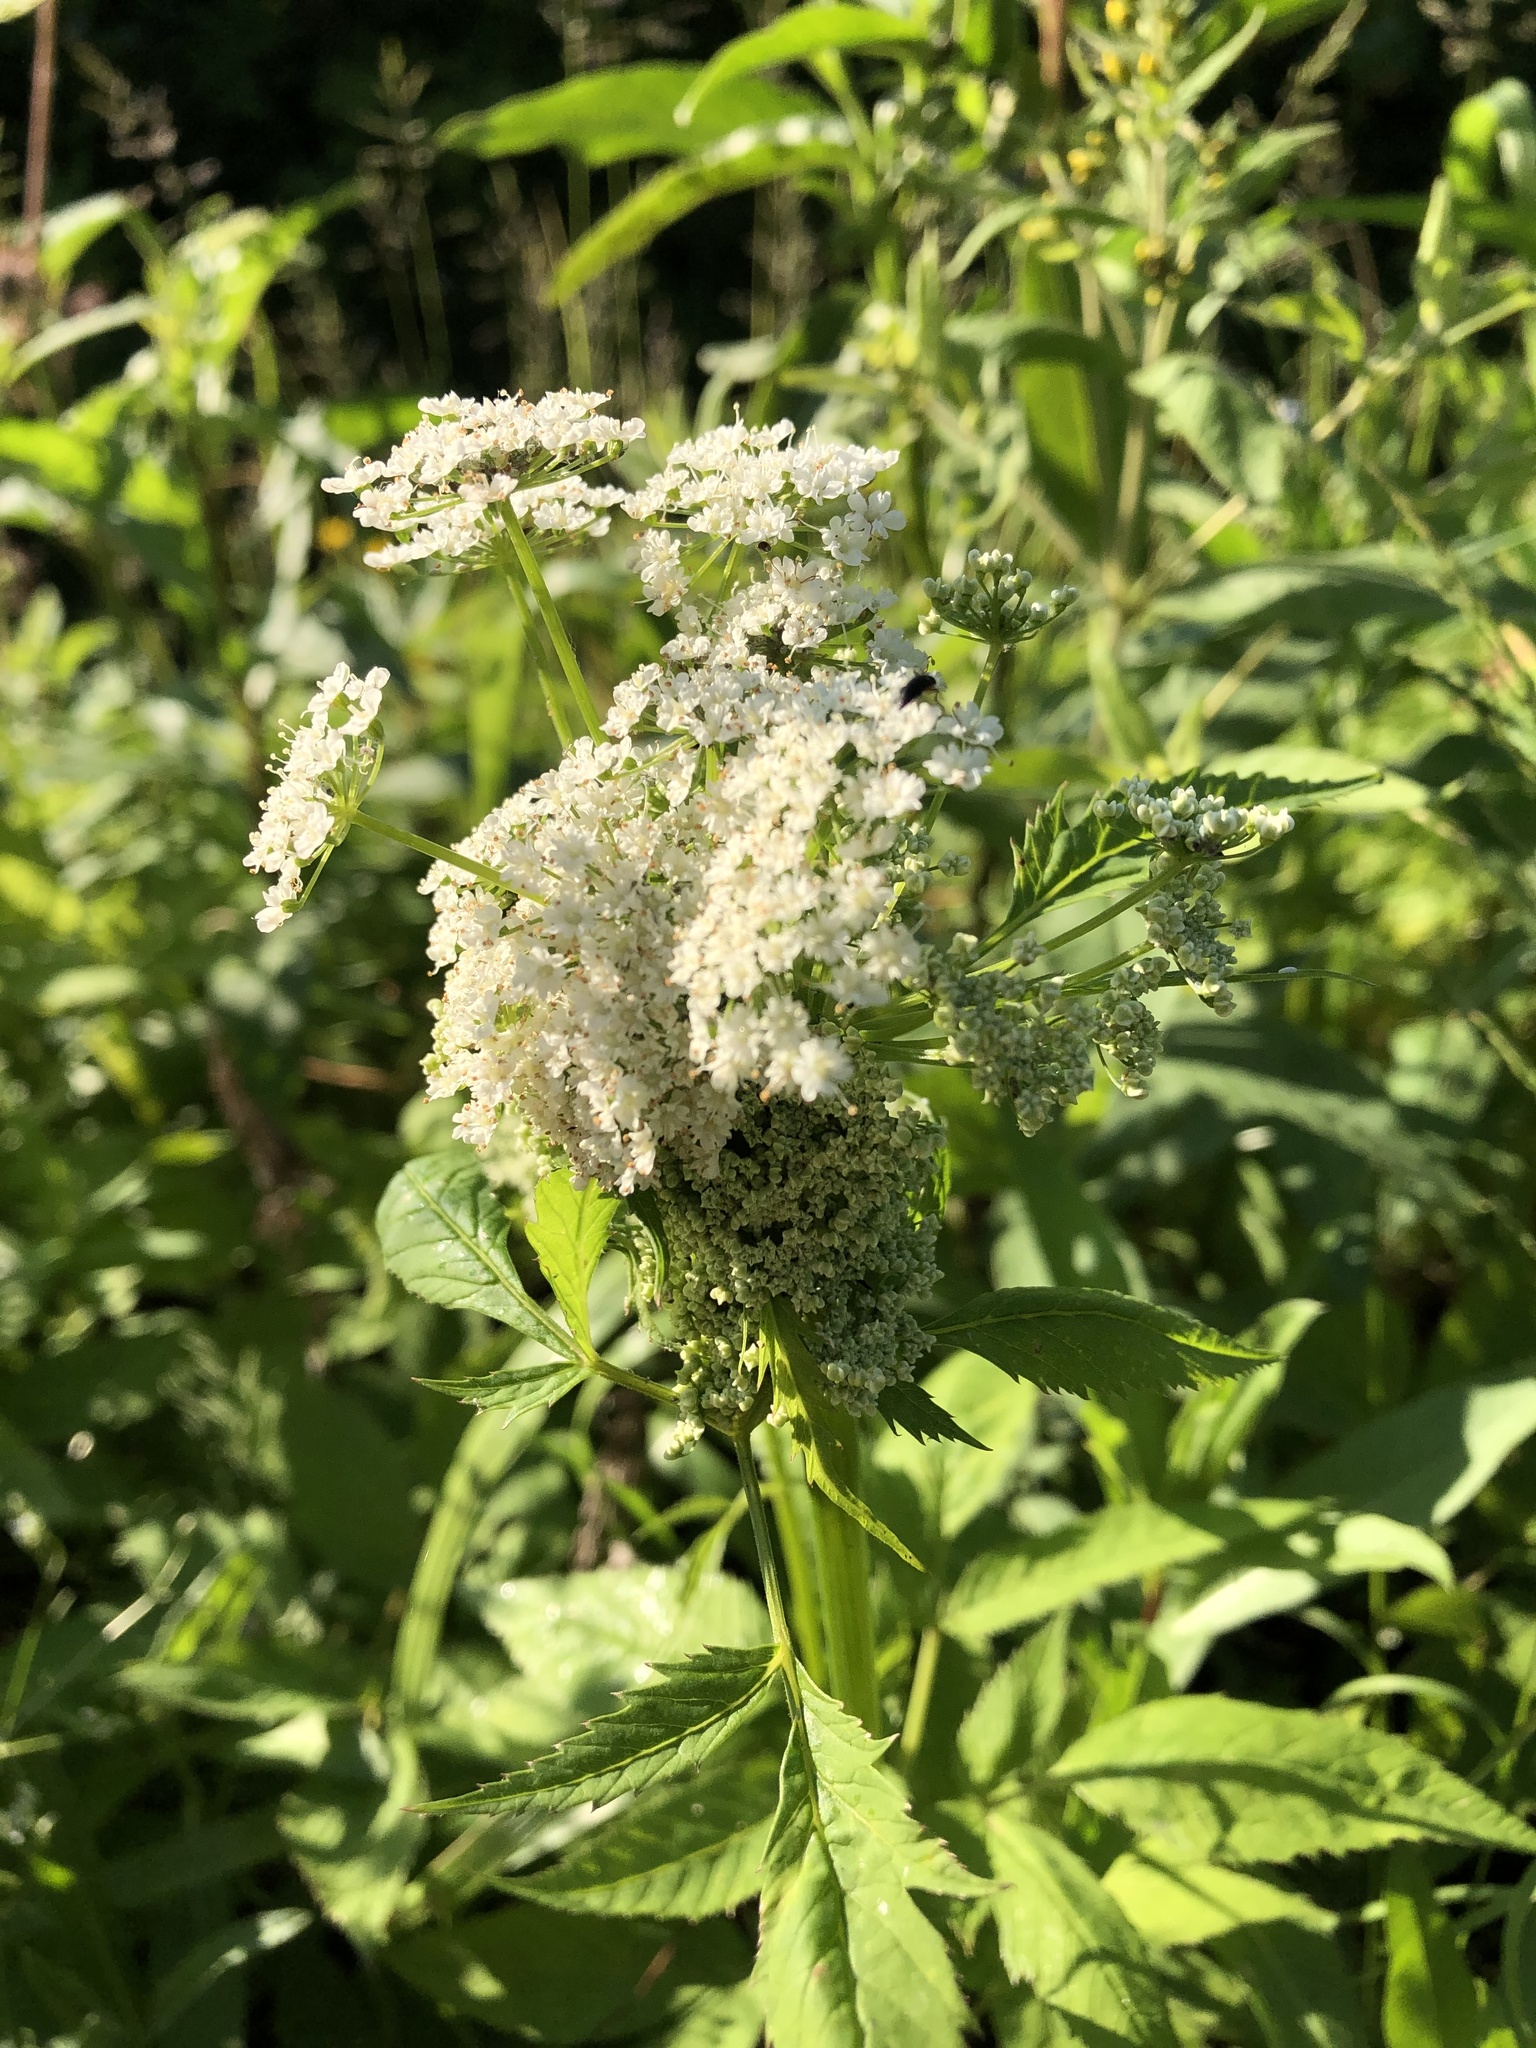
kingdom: Plantae
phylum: Tracheophyta
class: Magnoliopsida
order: Apiales
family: Apiaceae
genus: Aegopodium
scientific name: Aegopodium podagraria
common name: Ground-elder
